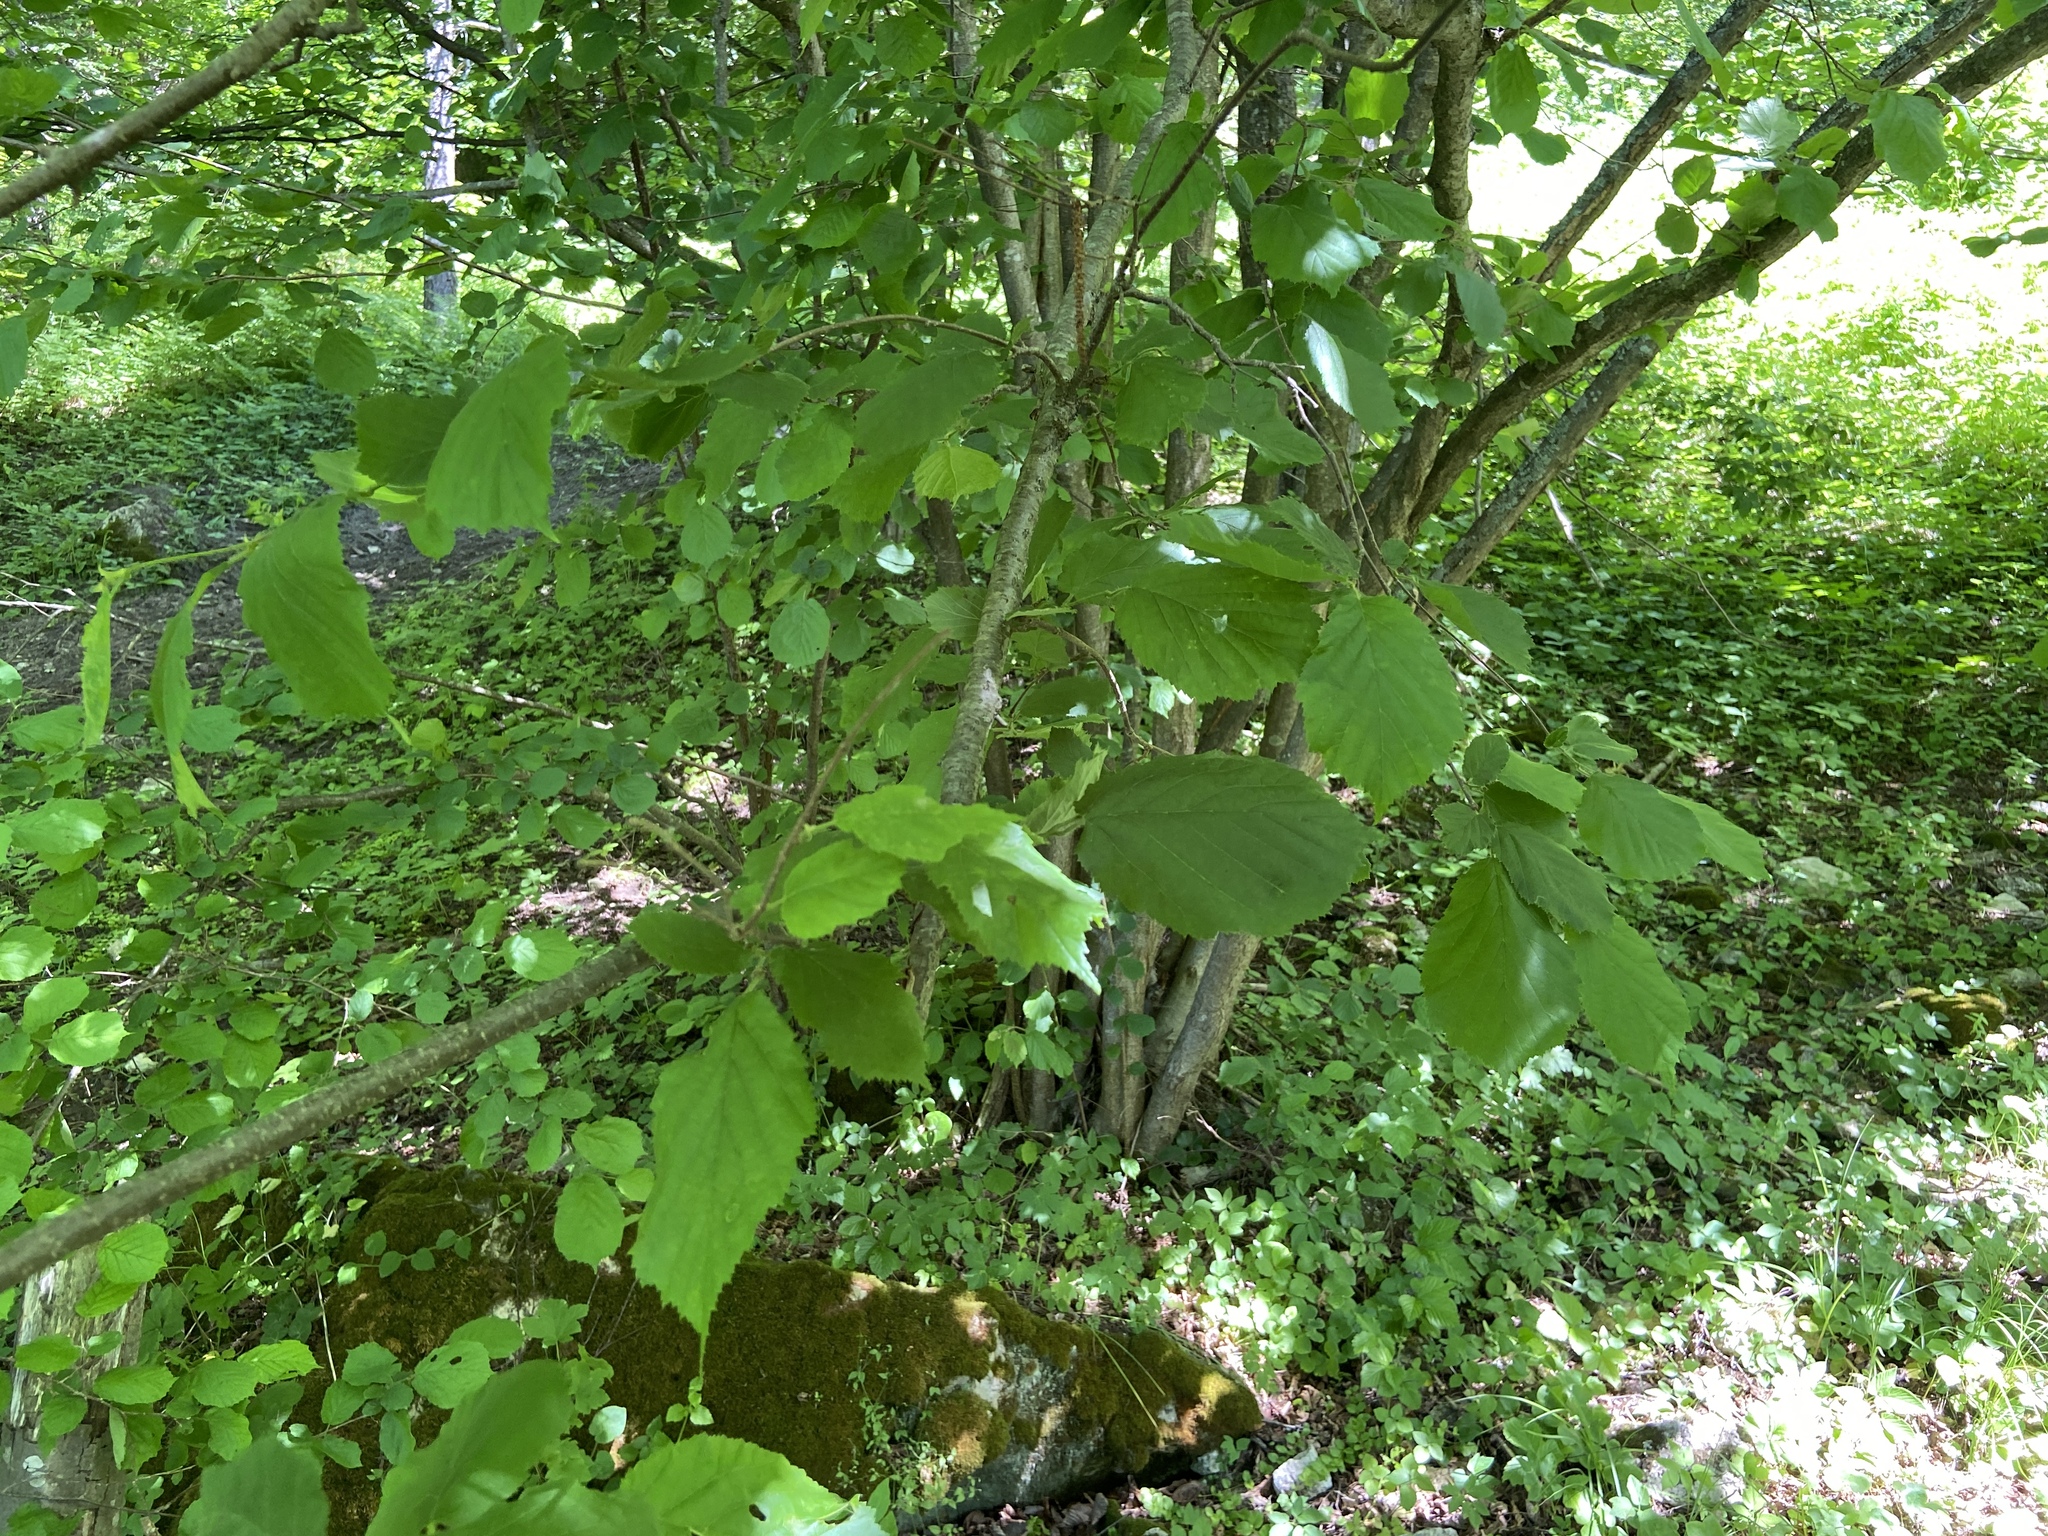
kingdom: Plantae
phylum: Tracheophyta
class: Magnoliopsida
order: Fagales
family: Betulaceae
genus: Corylus
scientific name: Corylus avellana
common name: European hazel
